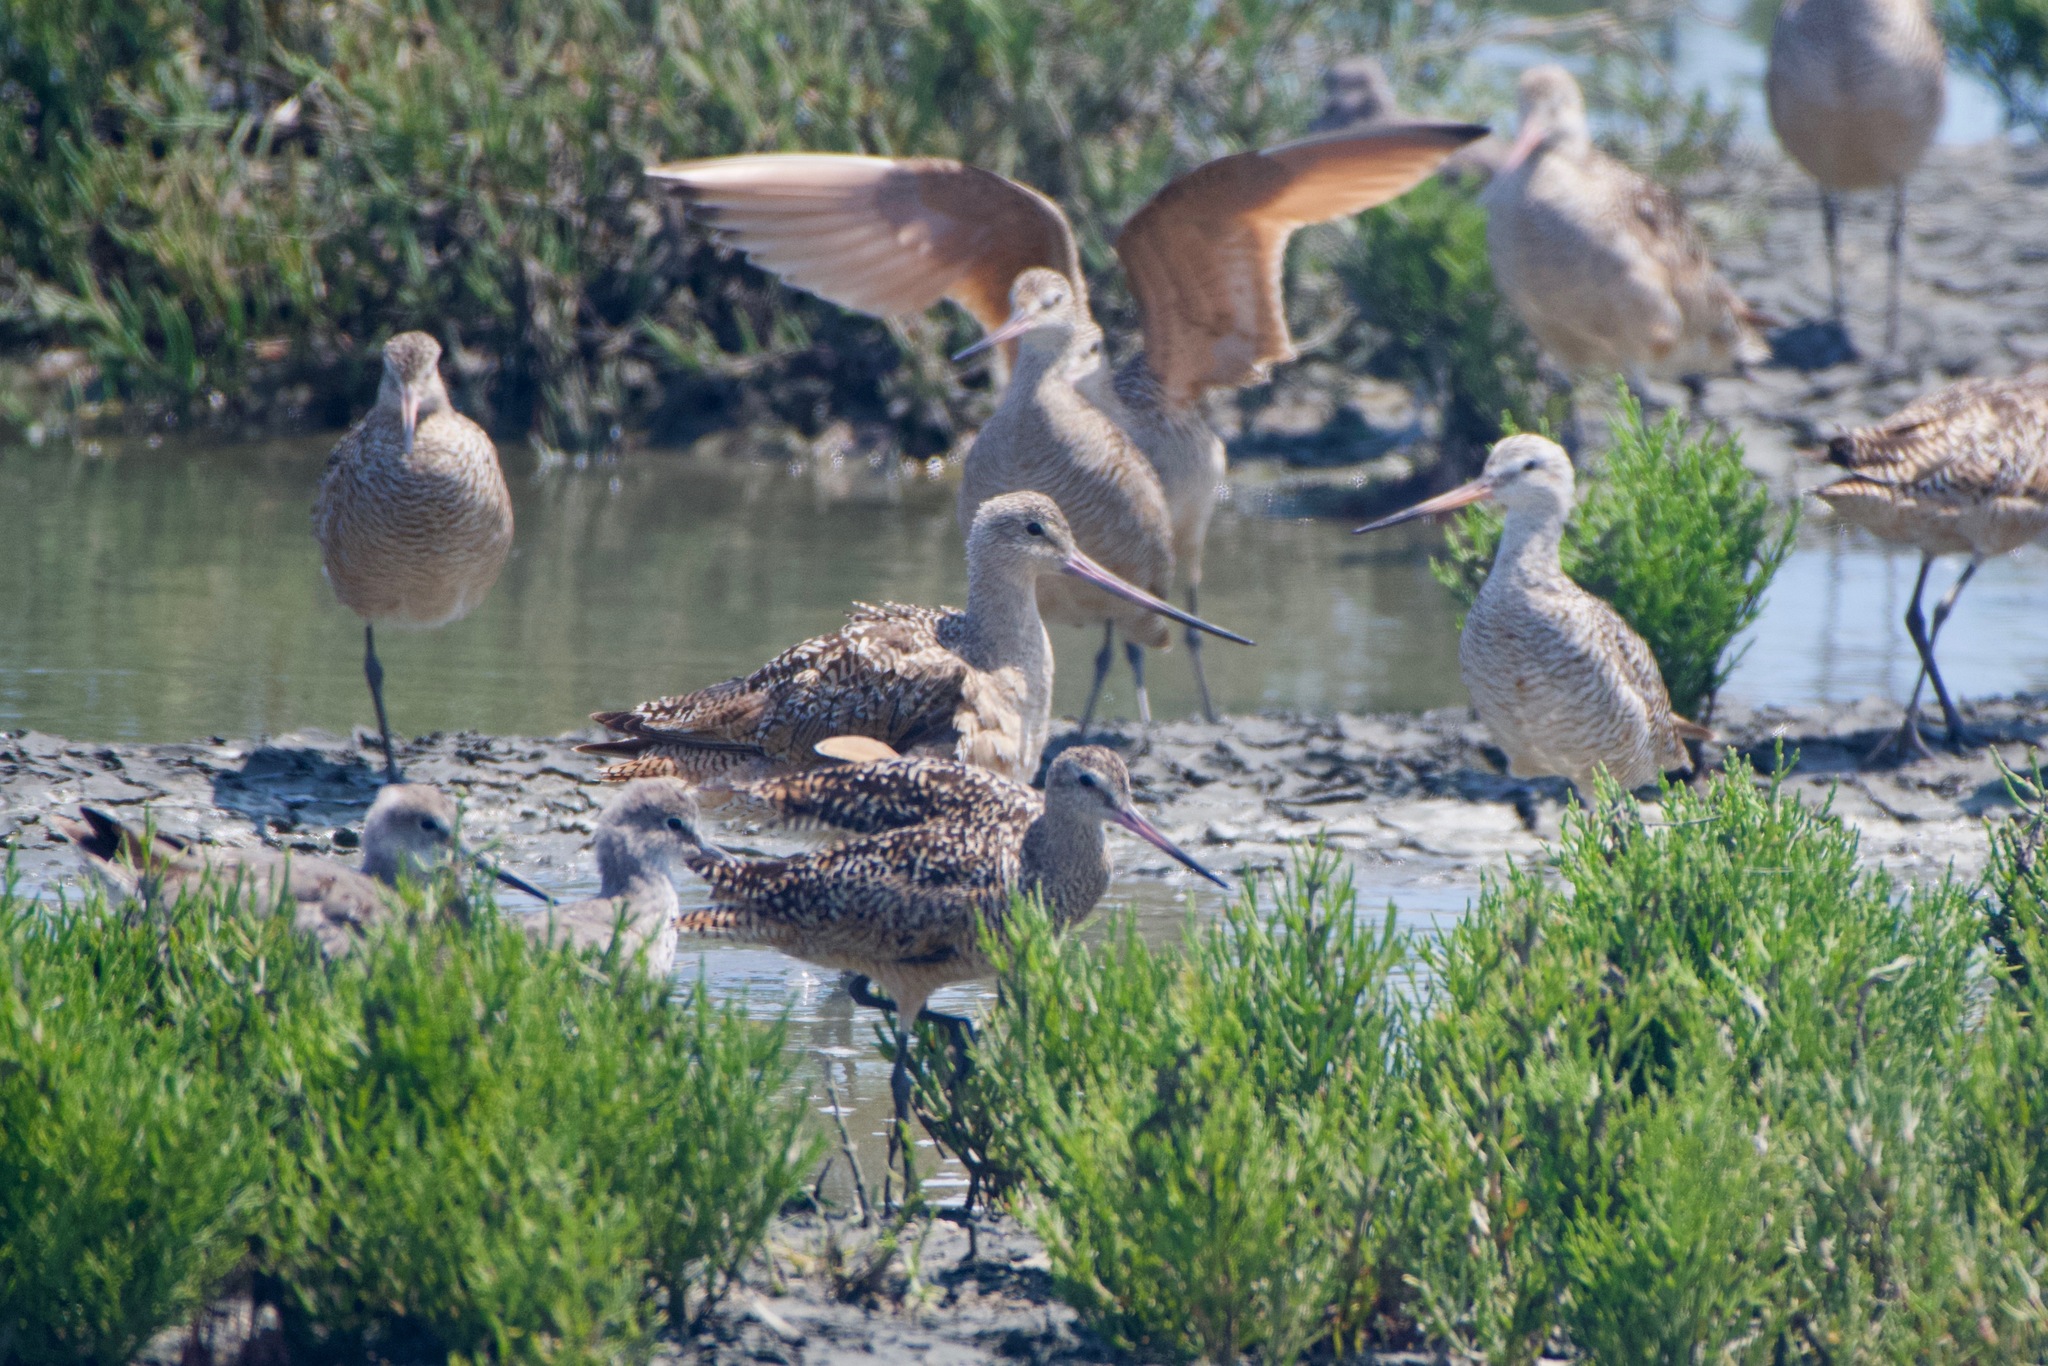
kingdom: Animalia
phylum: Chordata
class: Aves
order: Charadriiformes
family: Scolopacidae
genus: Limosa
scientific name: Limosa fedoa
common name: Marbled godwit
